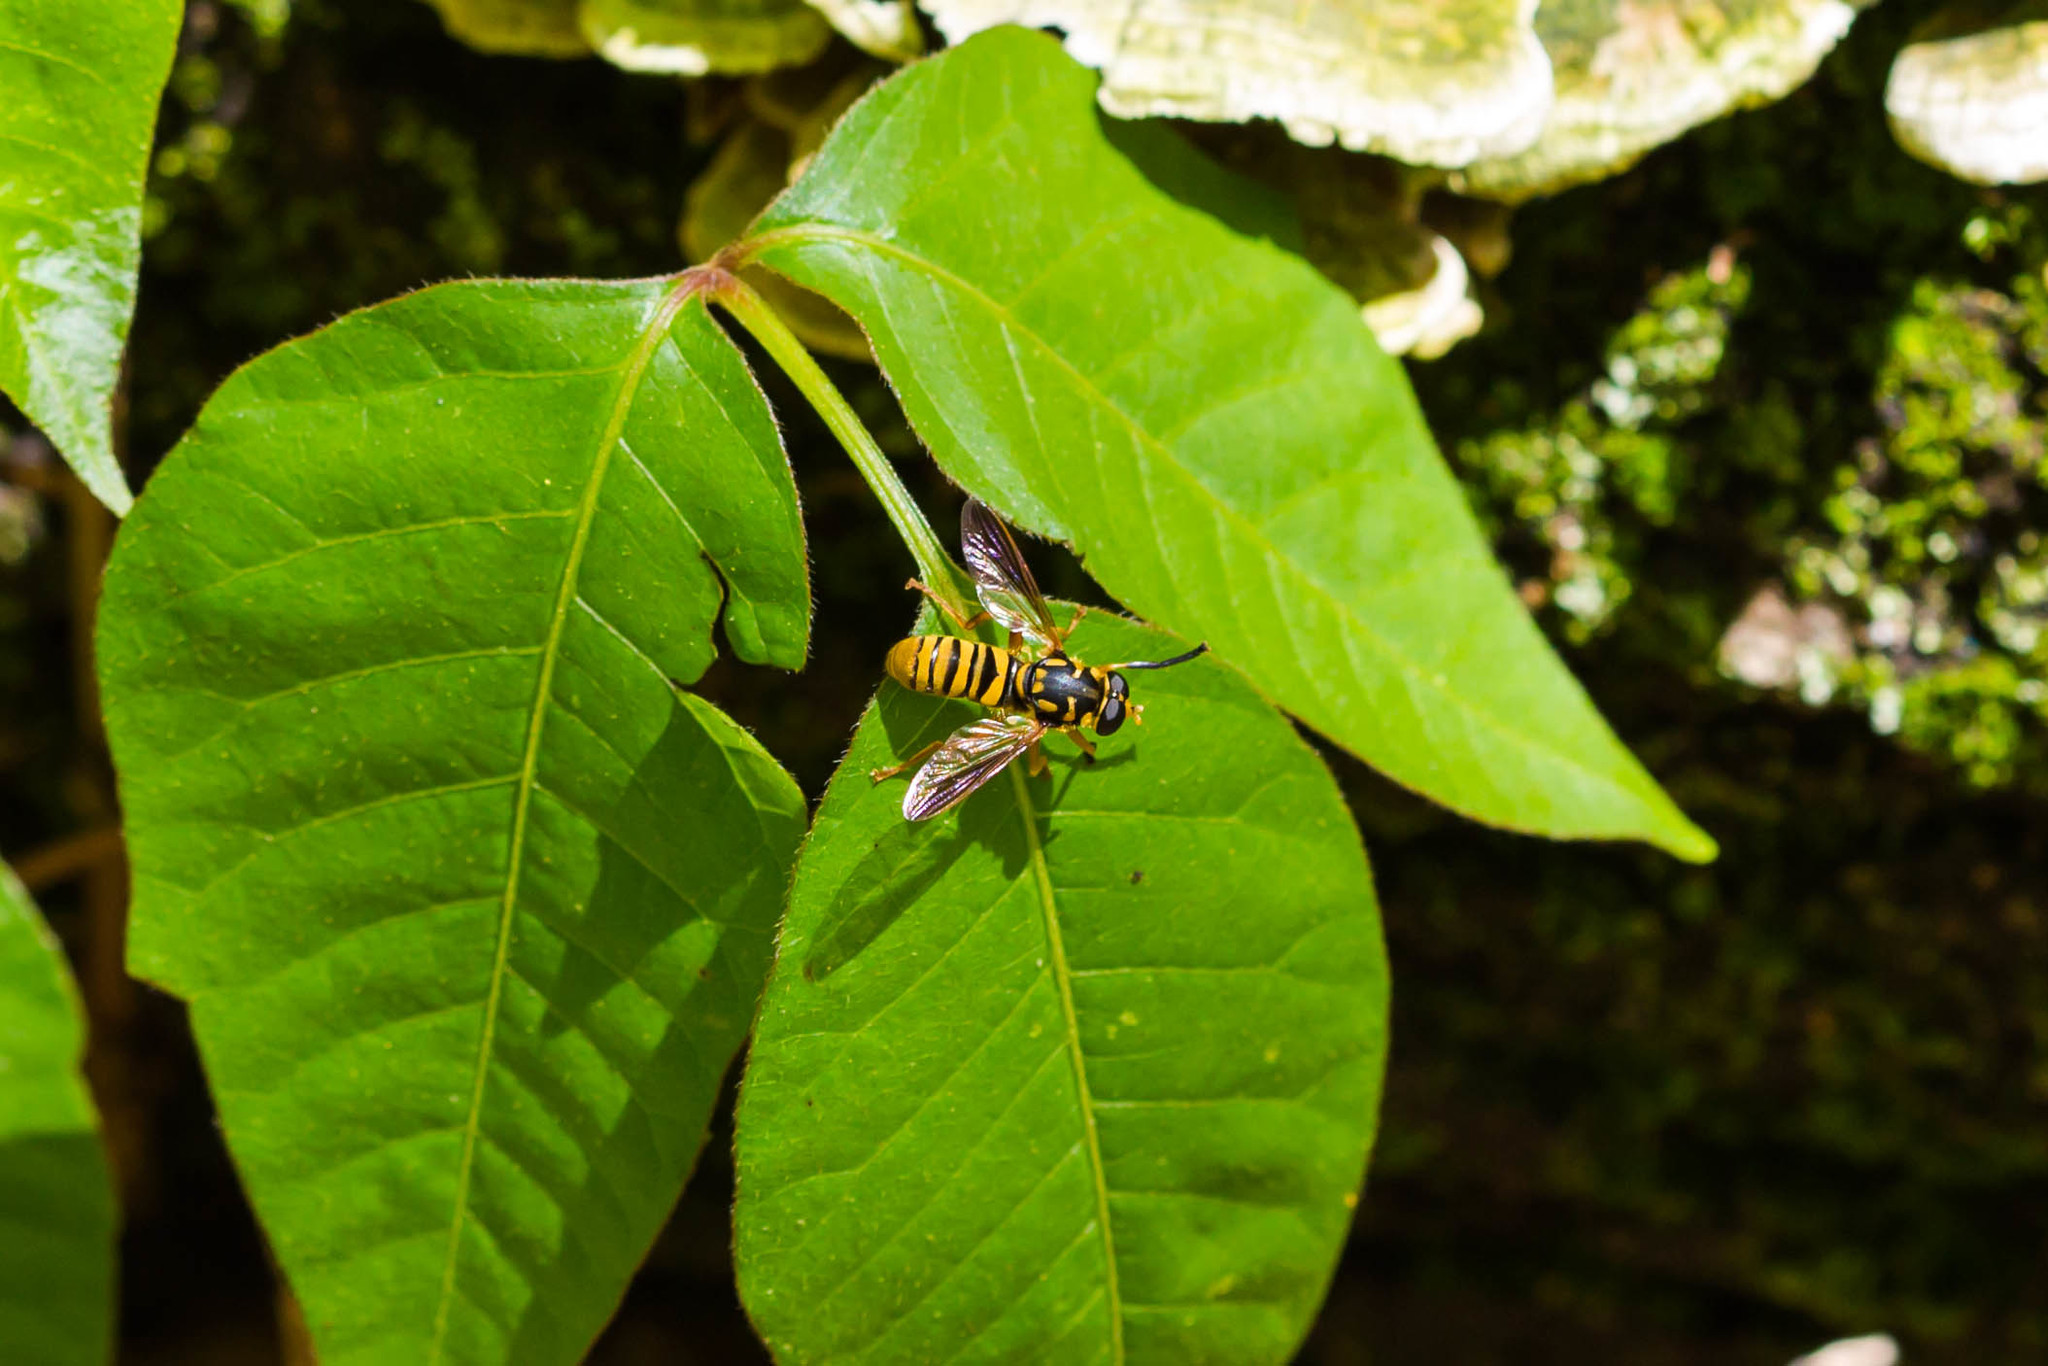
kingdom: Animalia
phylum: Arthropoda
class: Insecta
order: Diptera
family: Syrphidae
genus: Temnostoma
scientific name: Temnostoma daochum
